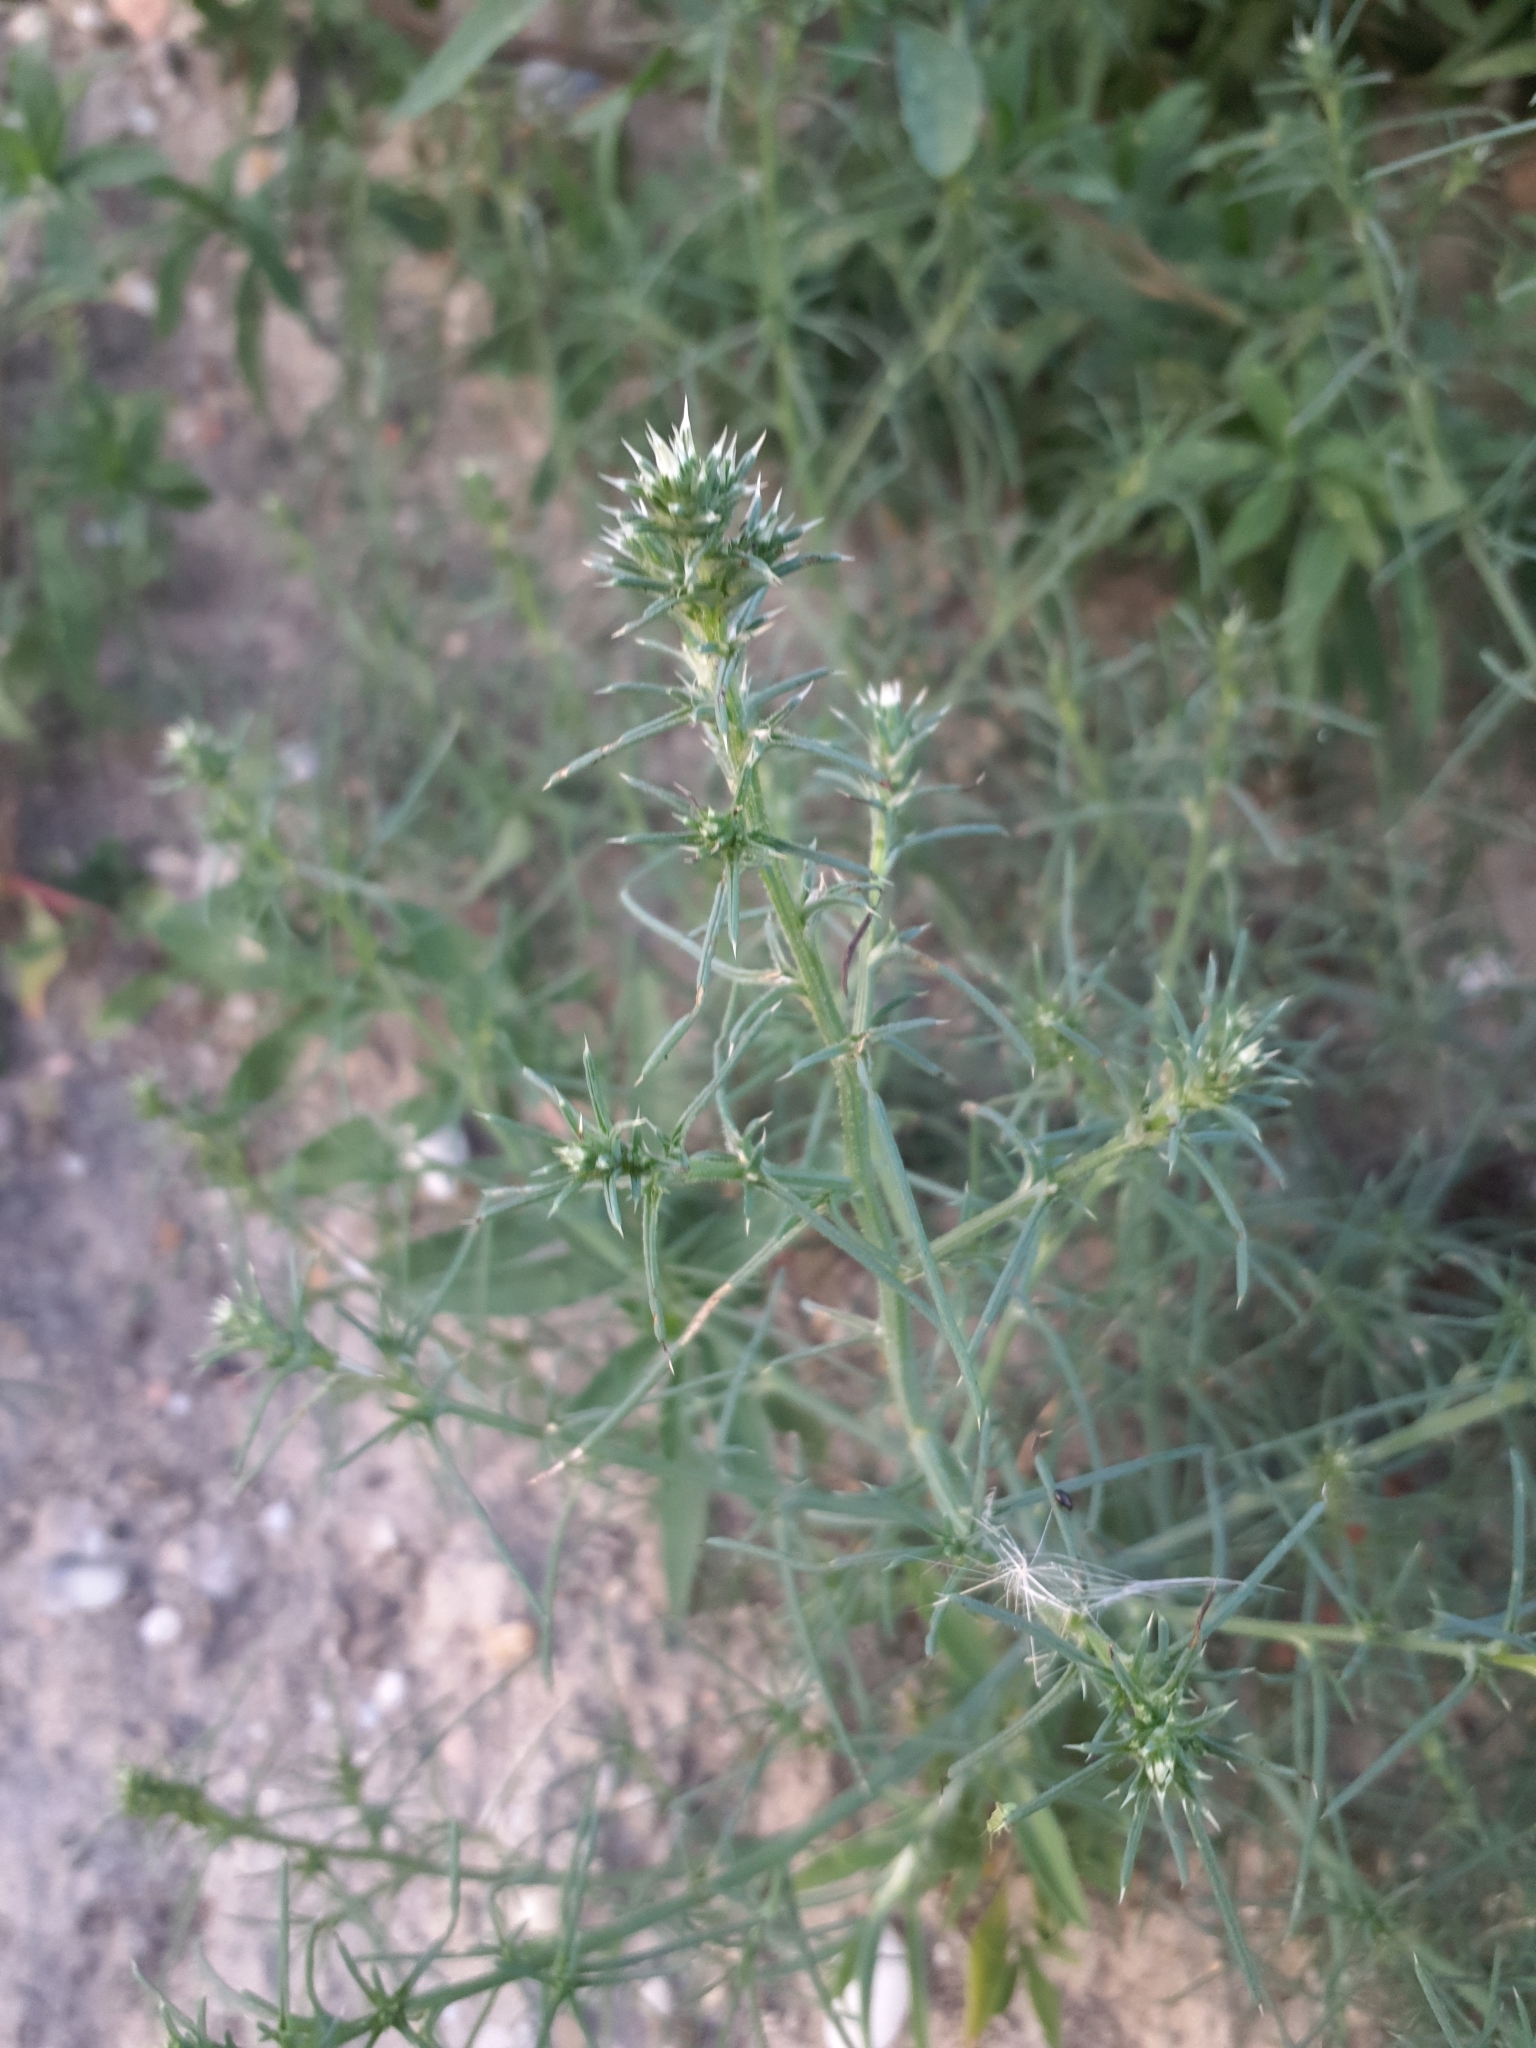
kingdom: Plantae
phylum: Tracheophyta
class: Magnoliopsida
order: Caryophyllales
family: Amaranthaceae
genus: Salsola
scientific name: Salsola tragus
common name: Prickly russian thistle
